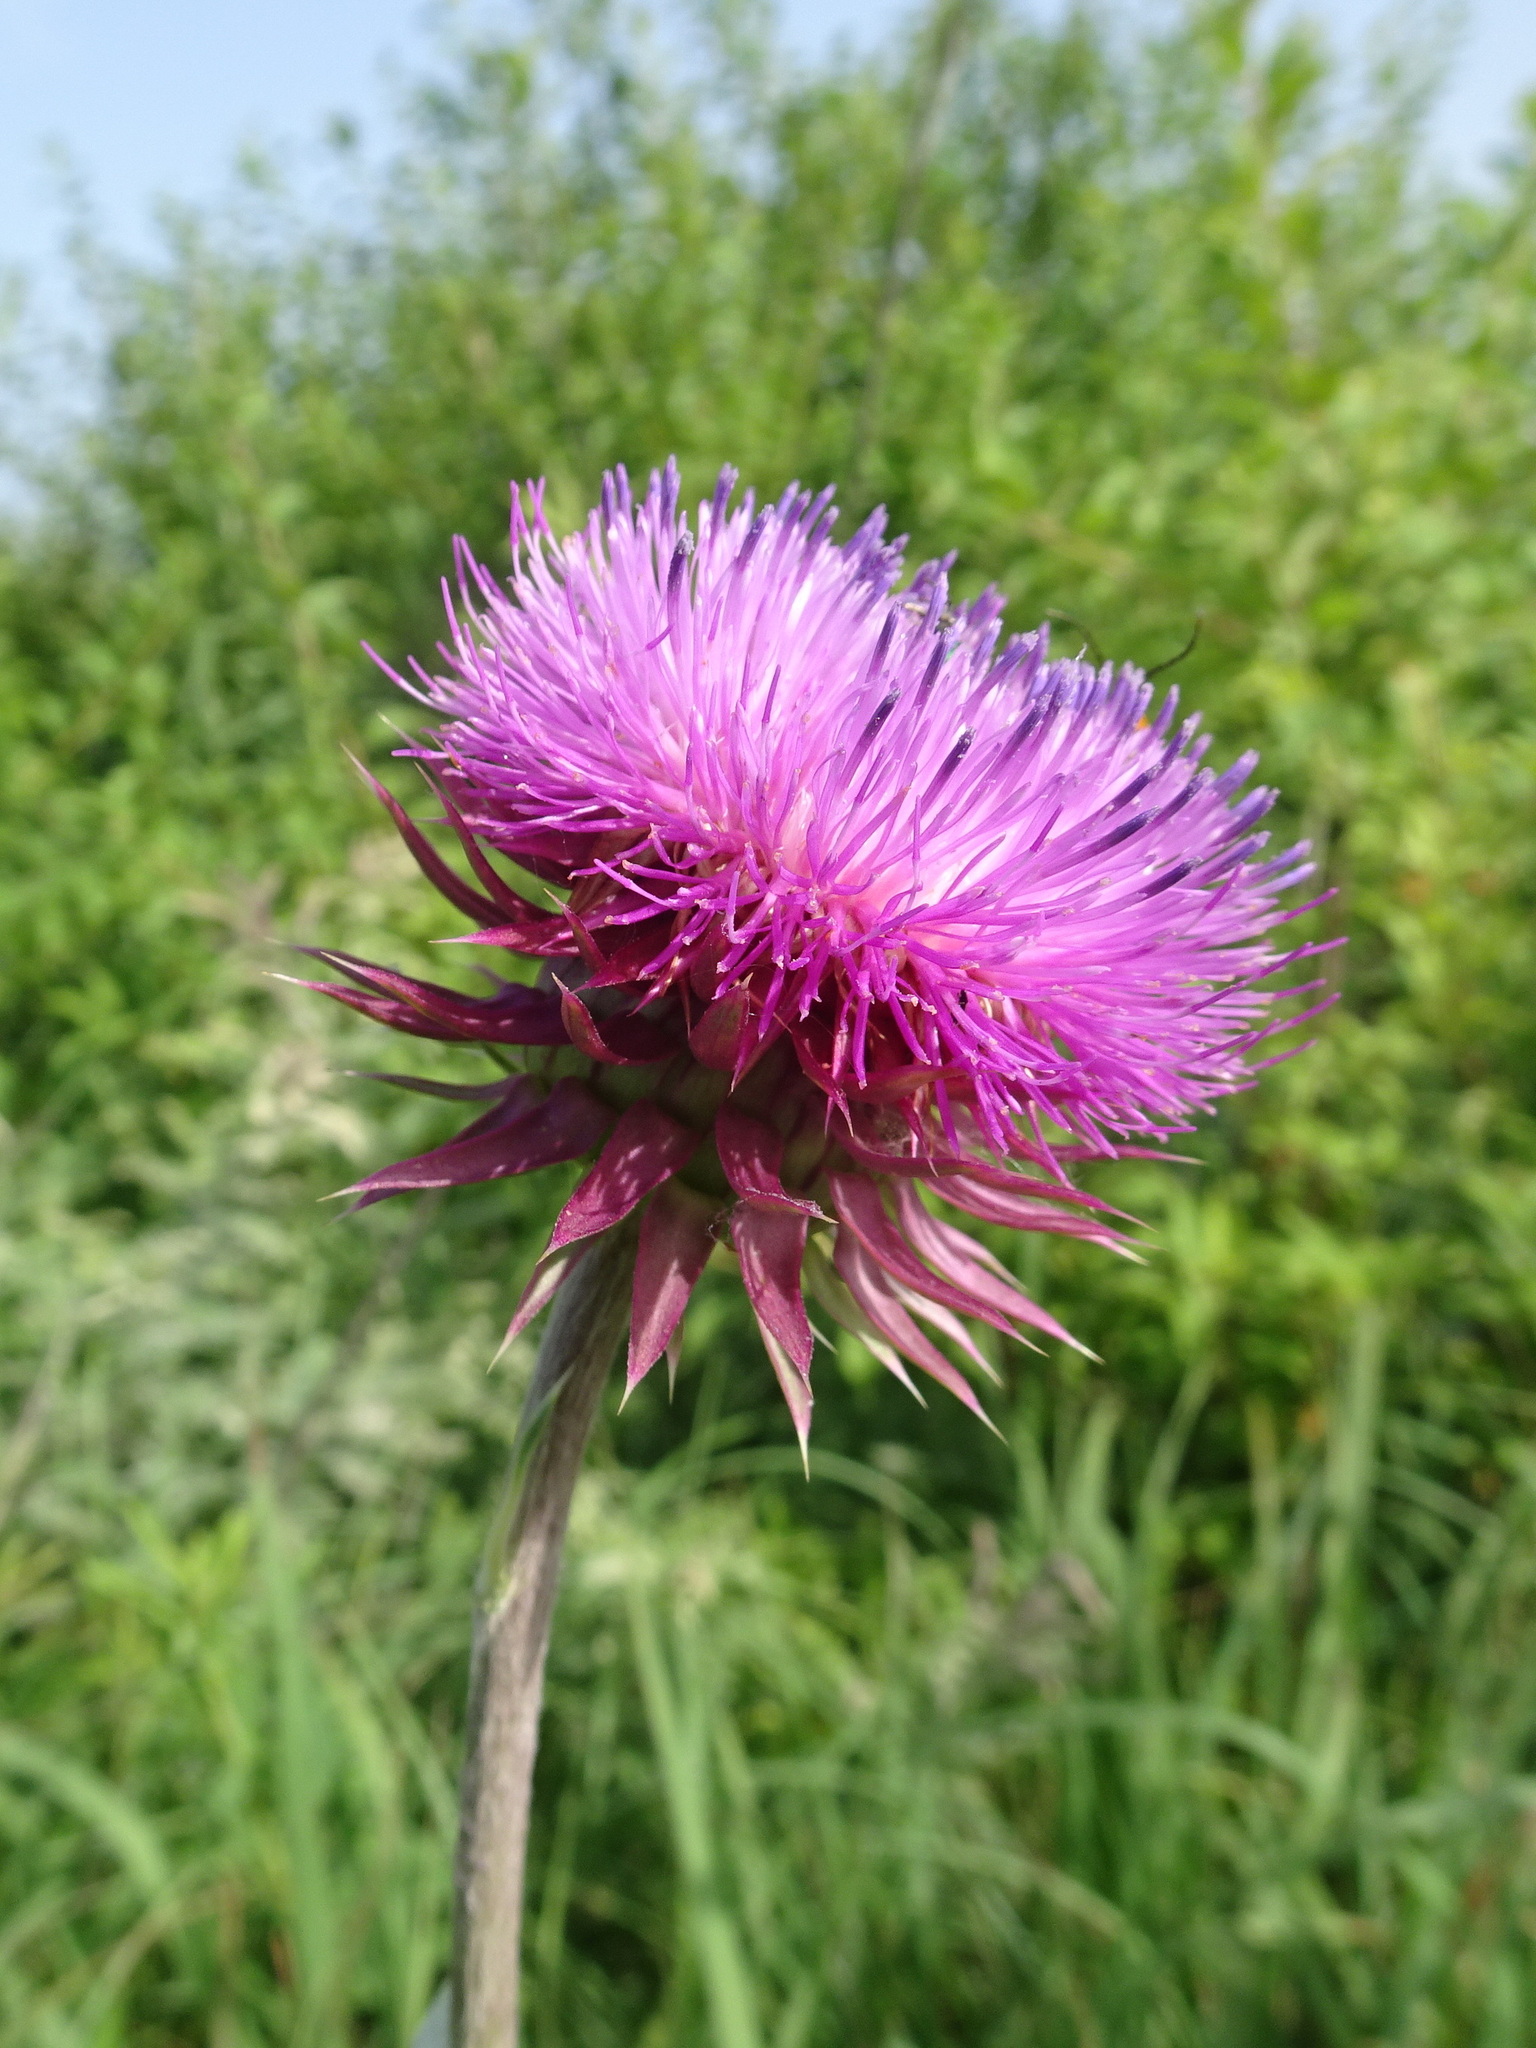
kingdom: Plantae
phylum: Tracheophyta
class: Magnoliopsida
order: Asterales
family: Asteraceae
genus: Carduus
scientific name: Carduus nutans
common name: Musk thistle
